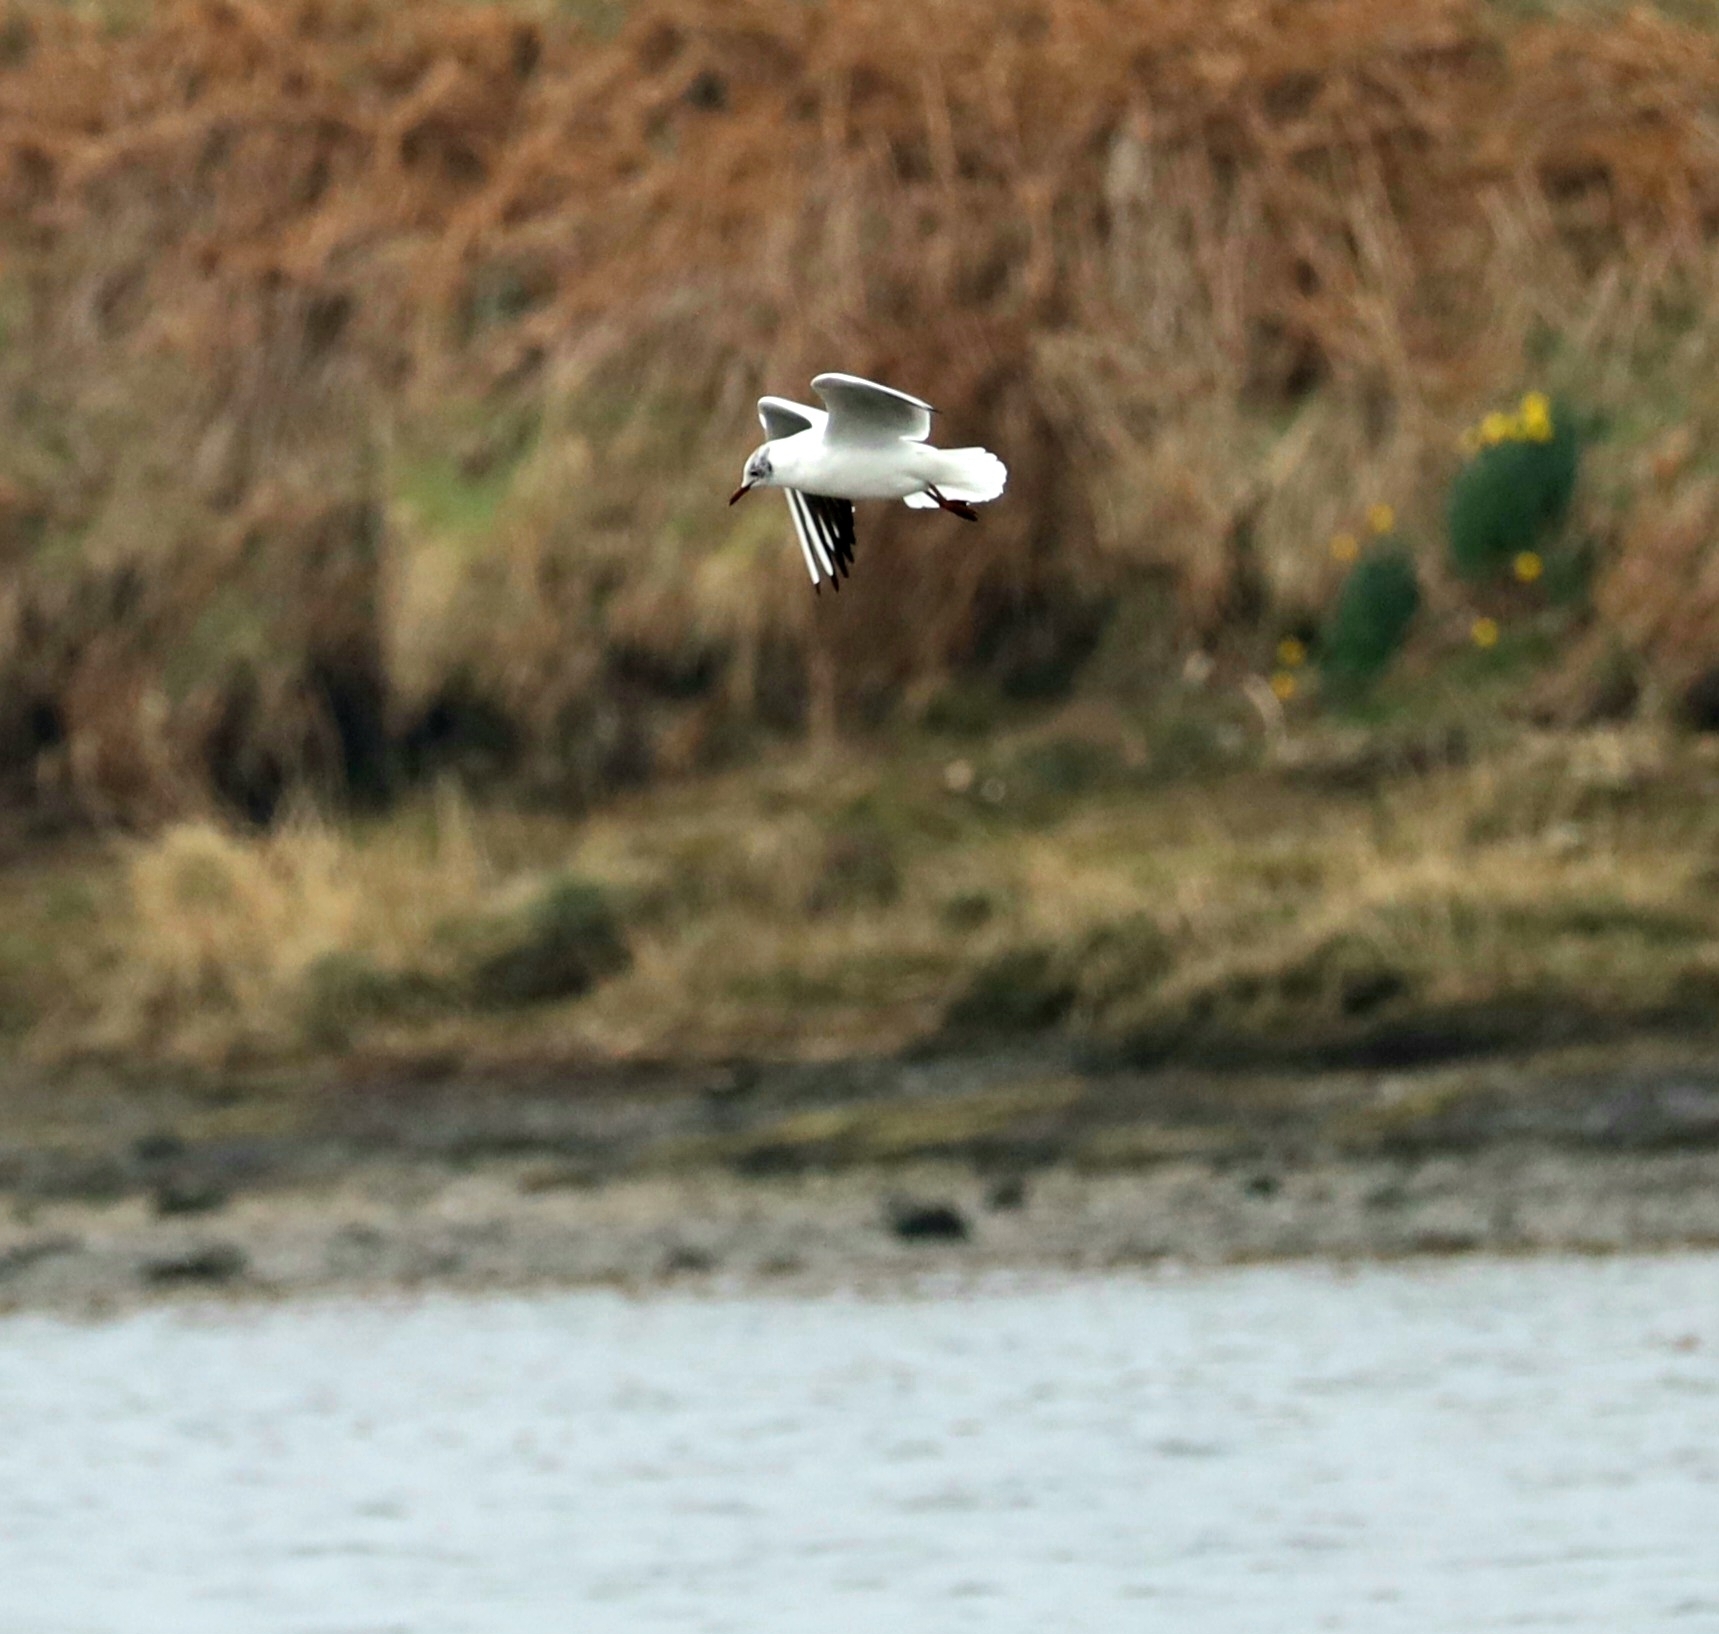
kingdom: Animalia
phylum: Chordata
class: Aves
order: Charadriiformes
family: Laridae
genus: Chroicocephalus
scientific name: Chroicocephalus ridibundus
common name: Black-headed gull
